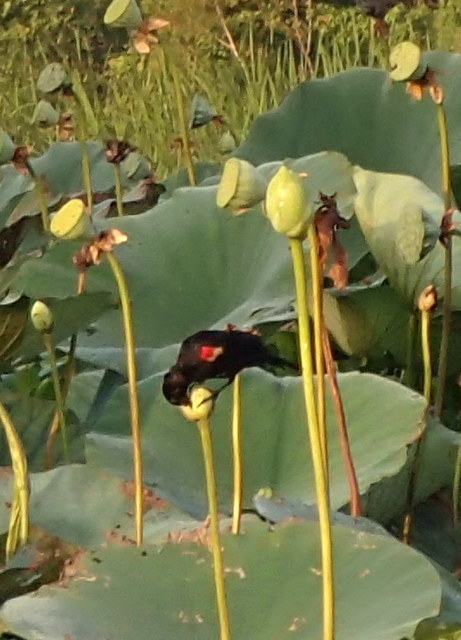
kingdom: Animalia
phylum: Chordata
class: Aves
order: Passeriformes
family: Icteridae
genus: Agelaius
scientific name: Agelaius phoeniceus
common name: Red-winged blackbird
